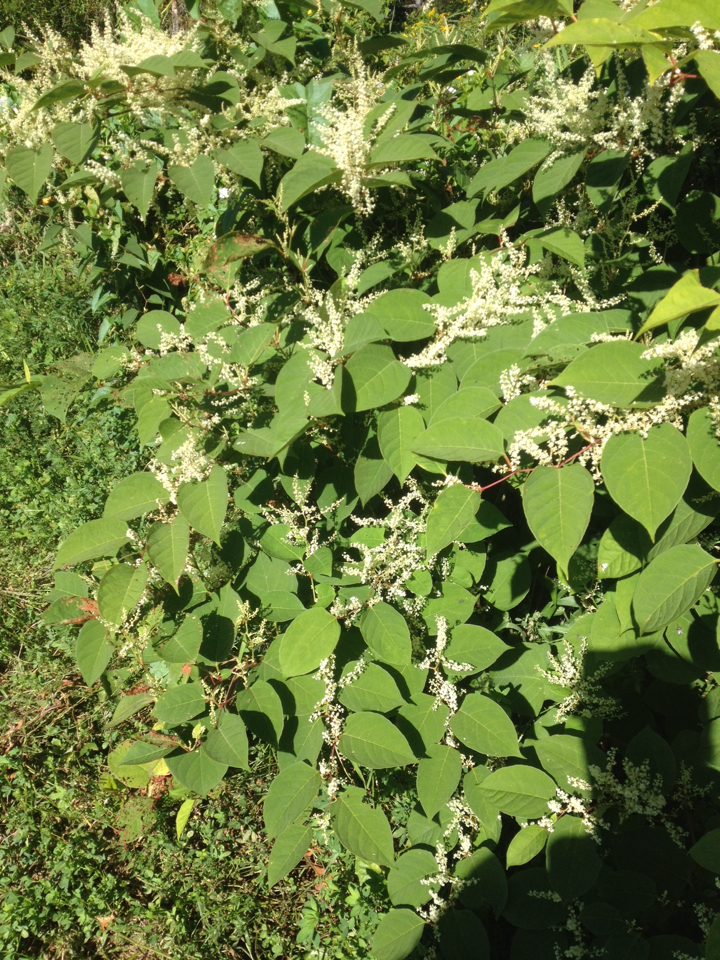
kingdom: Plantae
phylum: Tracheophyta
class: Magnoliopsida
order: Caryophyllales
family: Polygonaceae
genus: Reynoutria
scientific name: Reynoutria japonica
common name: Japanese knotweed
